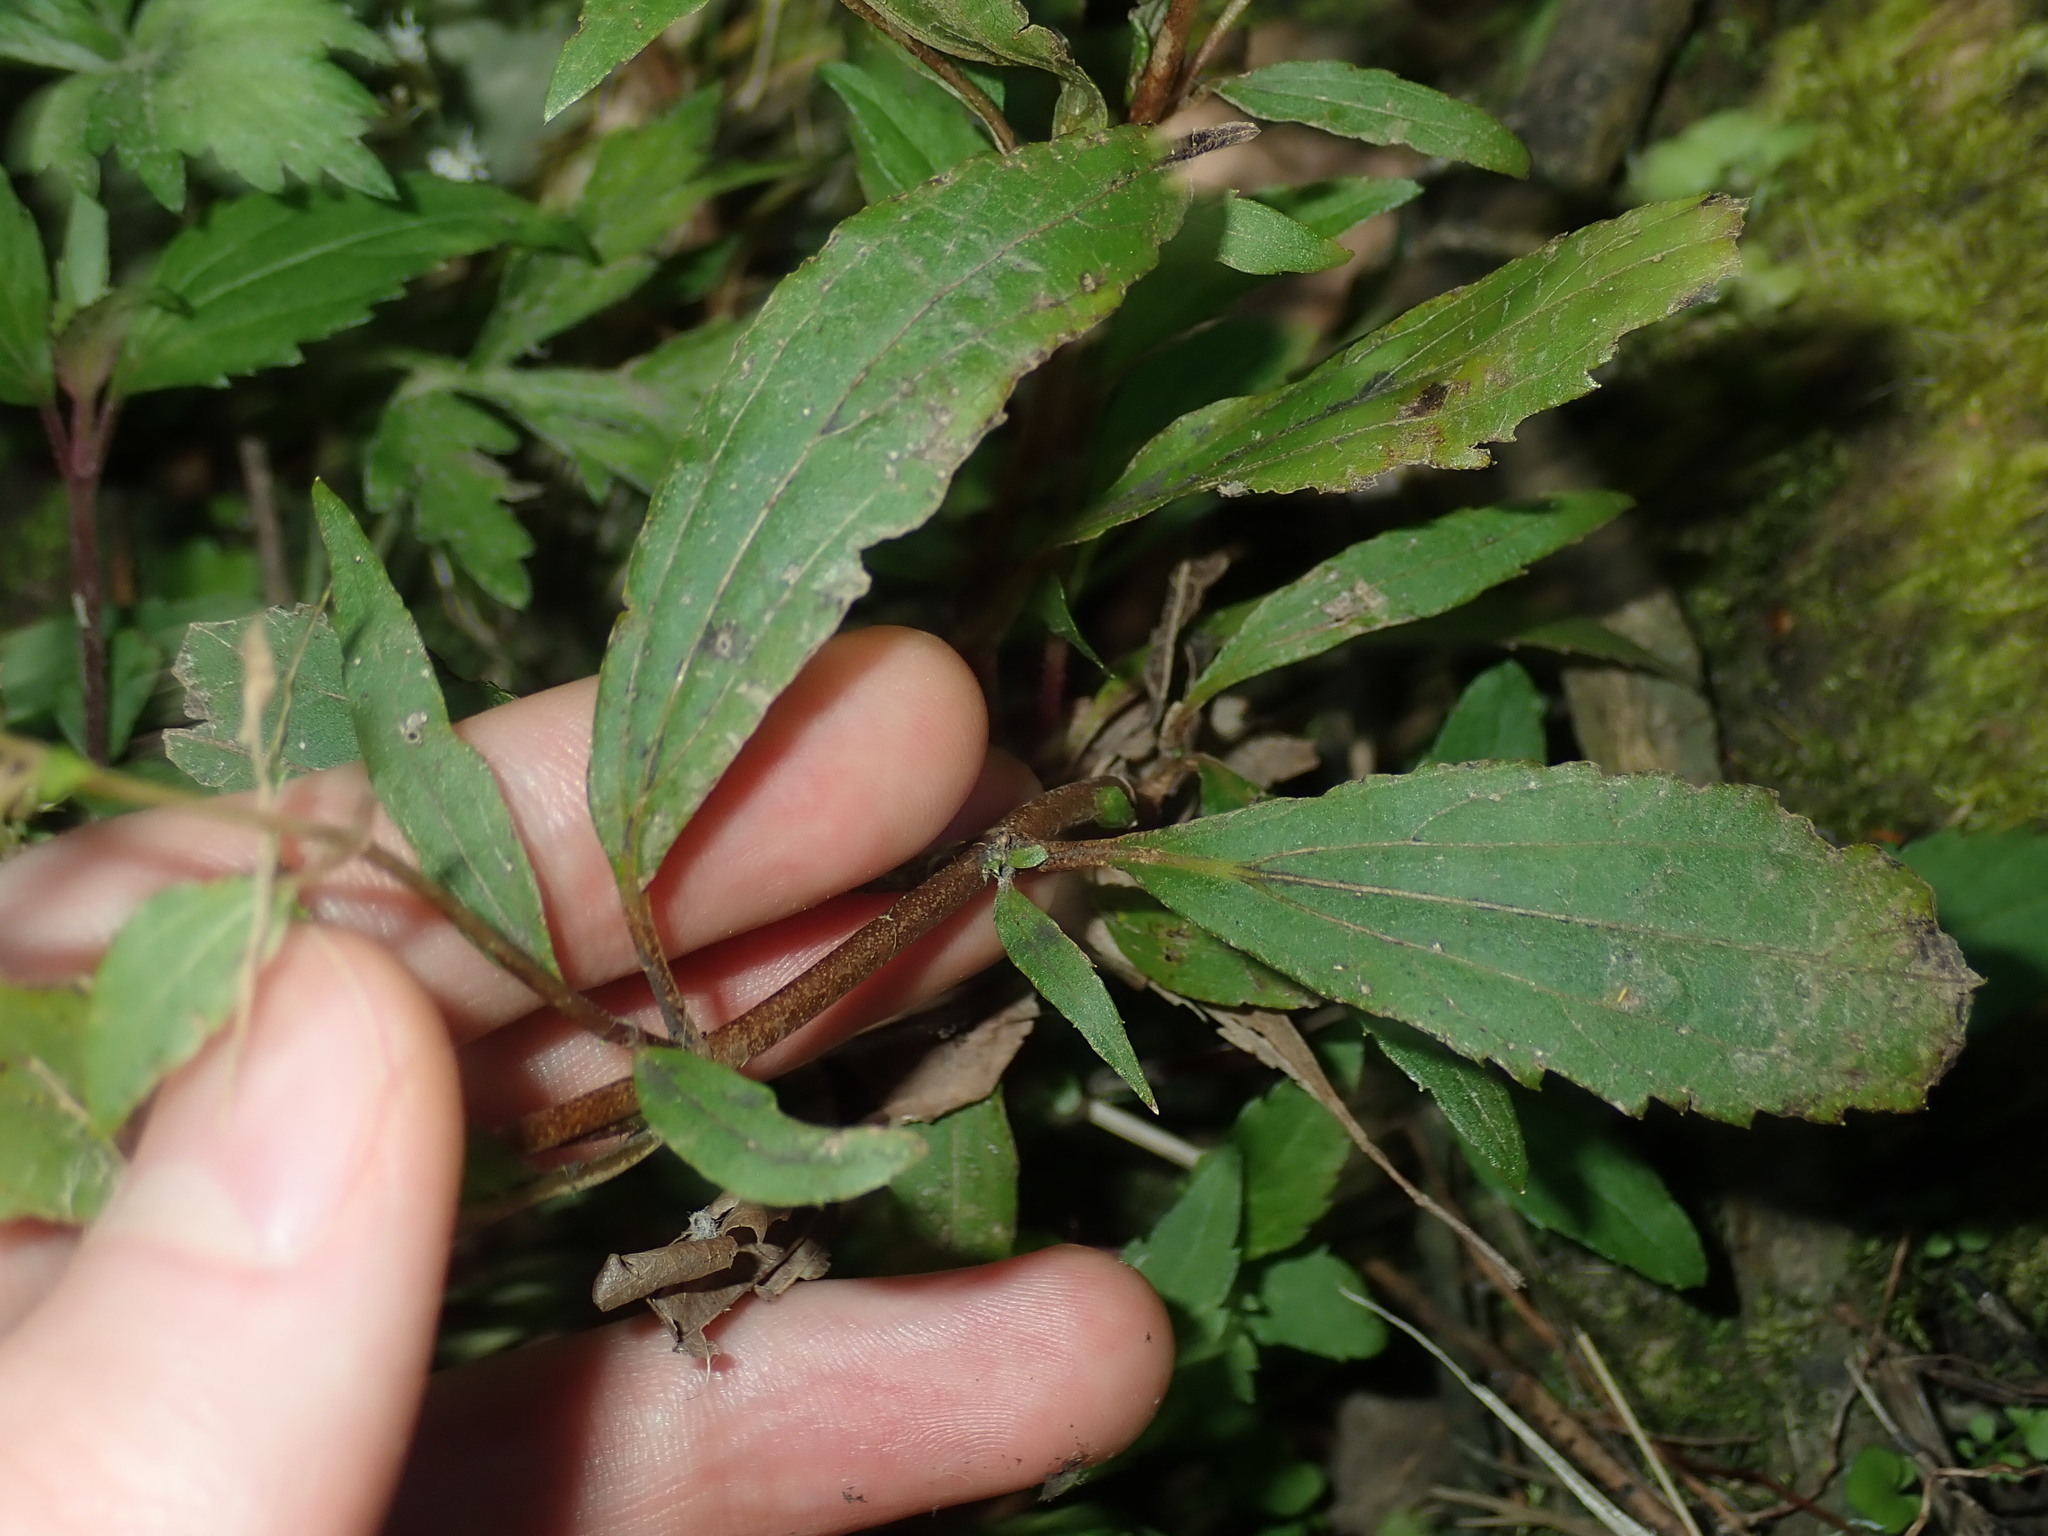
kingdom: Plantae
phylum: Tracheophyta
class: Magnoliopsida
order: Asterales
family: Asteraceae
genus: Ageratina
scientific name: Ageratina riparia
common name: Creeping croftonweed
